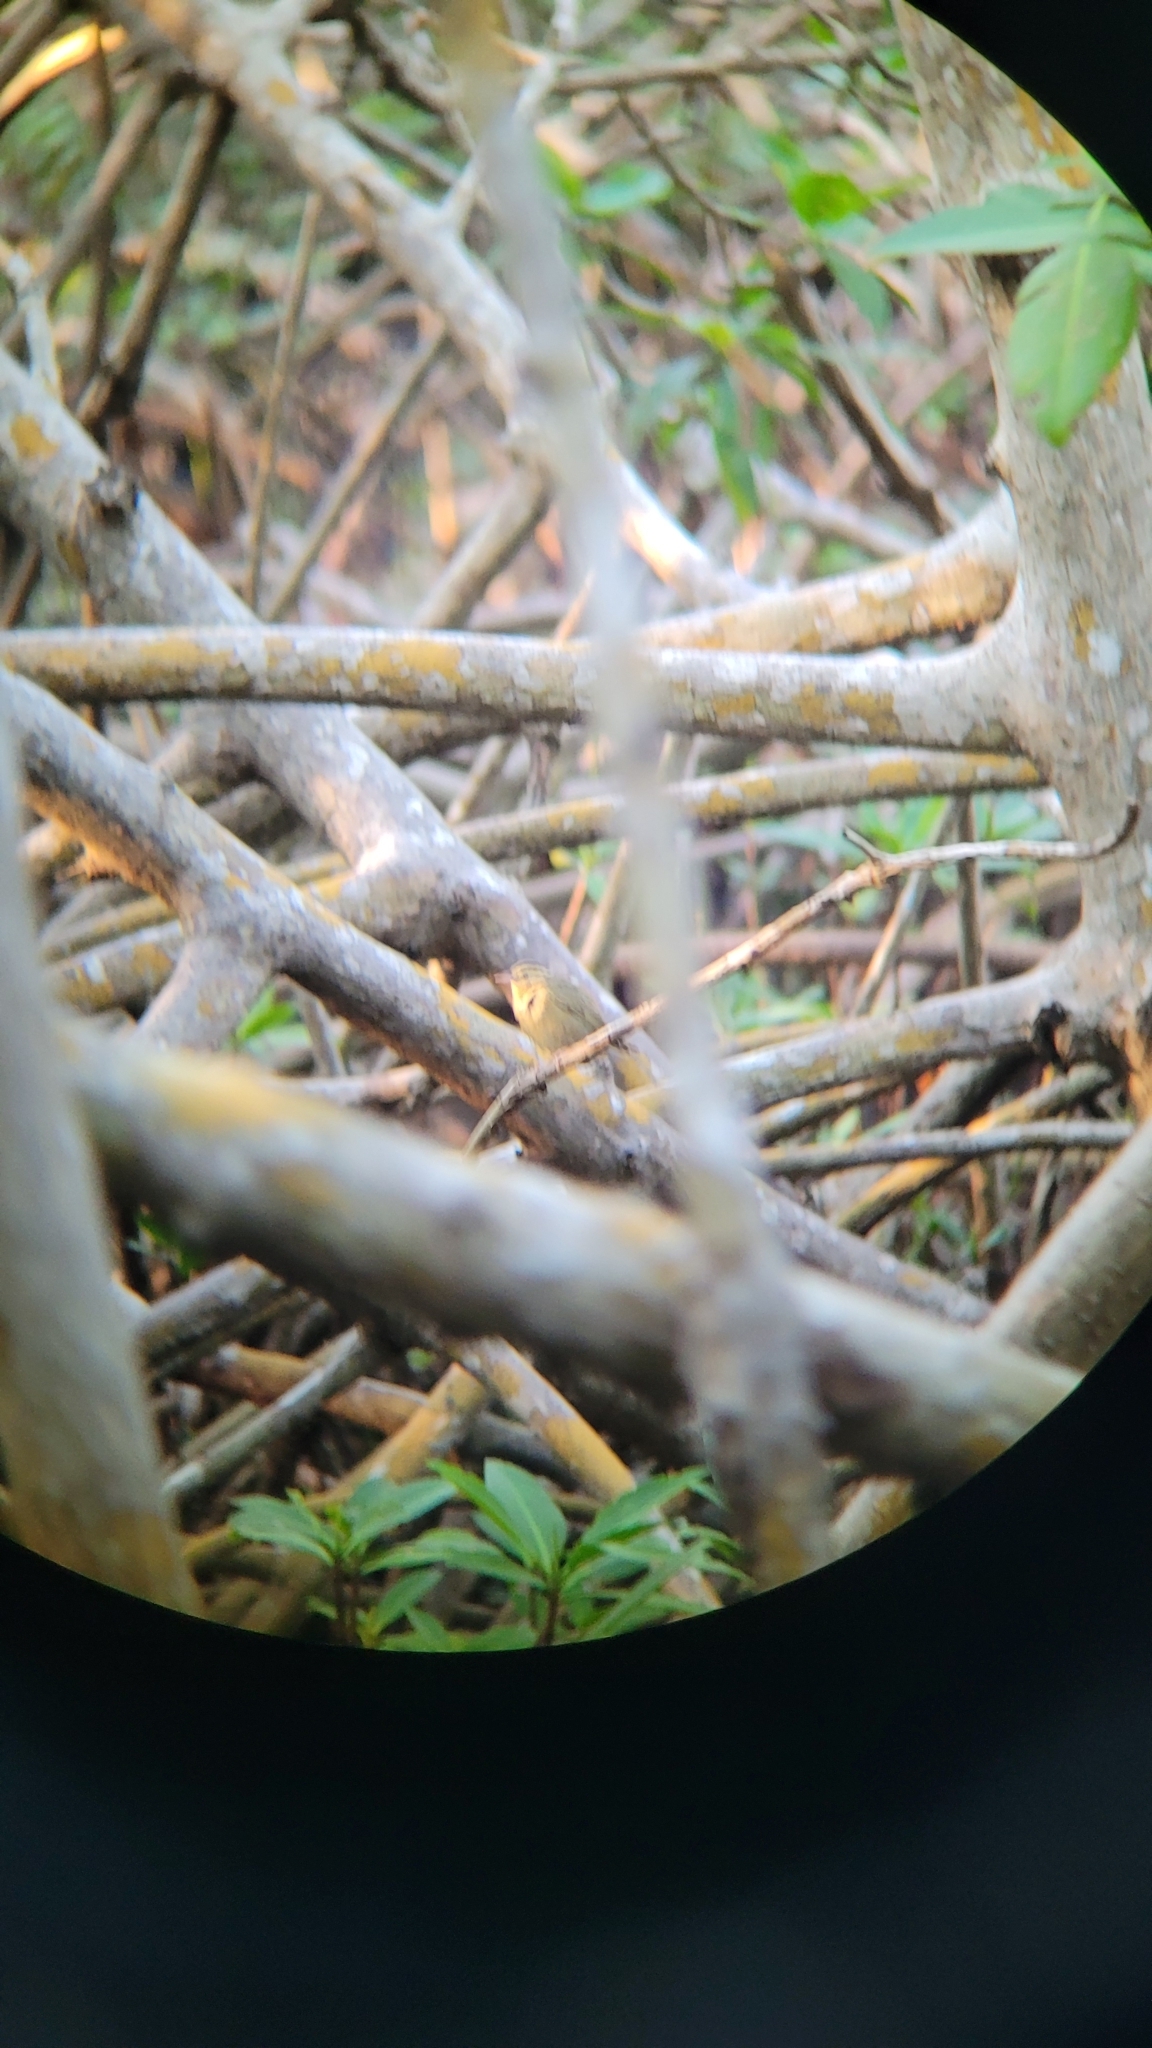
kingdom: Animalia
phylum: Chordata
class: Aves
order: Passeriformes
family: Parulidae
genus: Helmitheros
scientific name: Helmitheros vermivorum
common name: Worm-eating warbler
